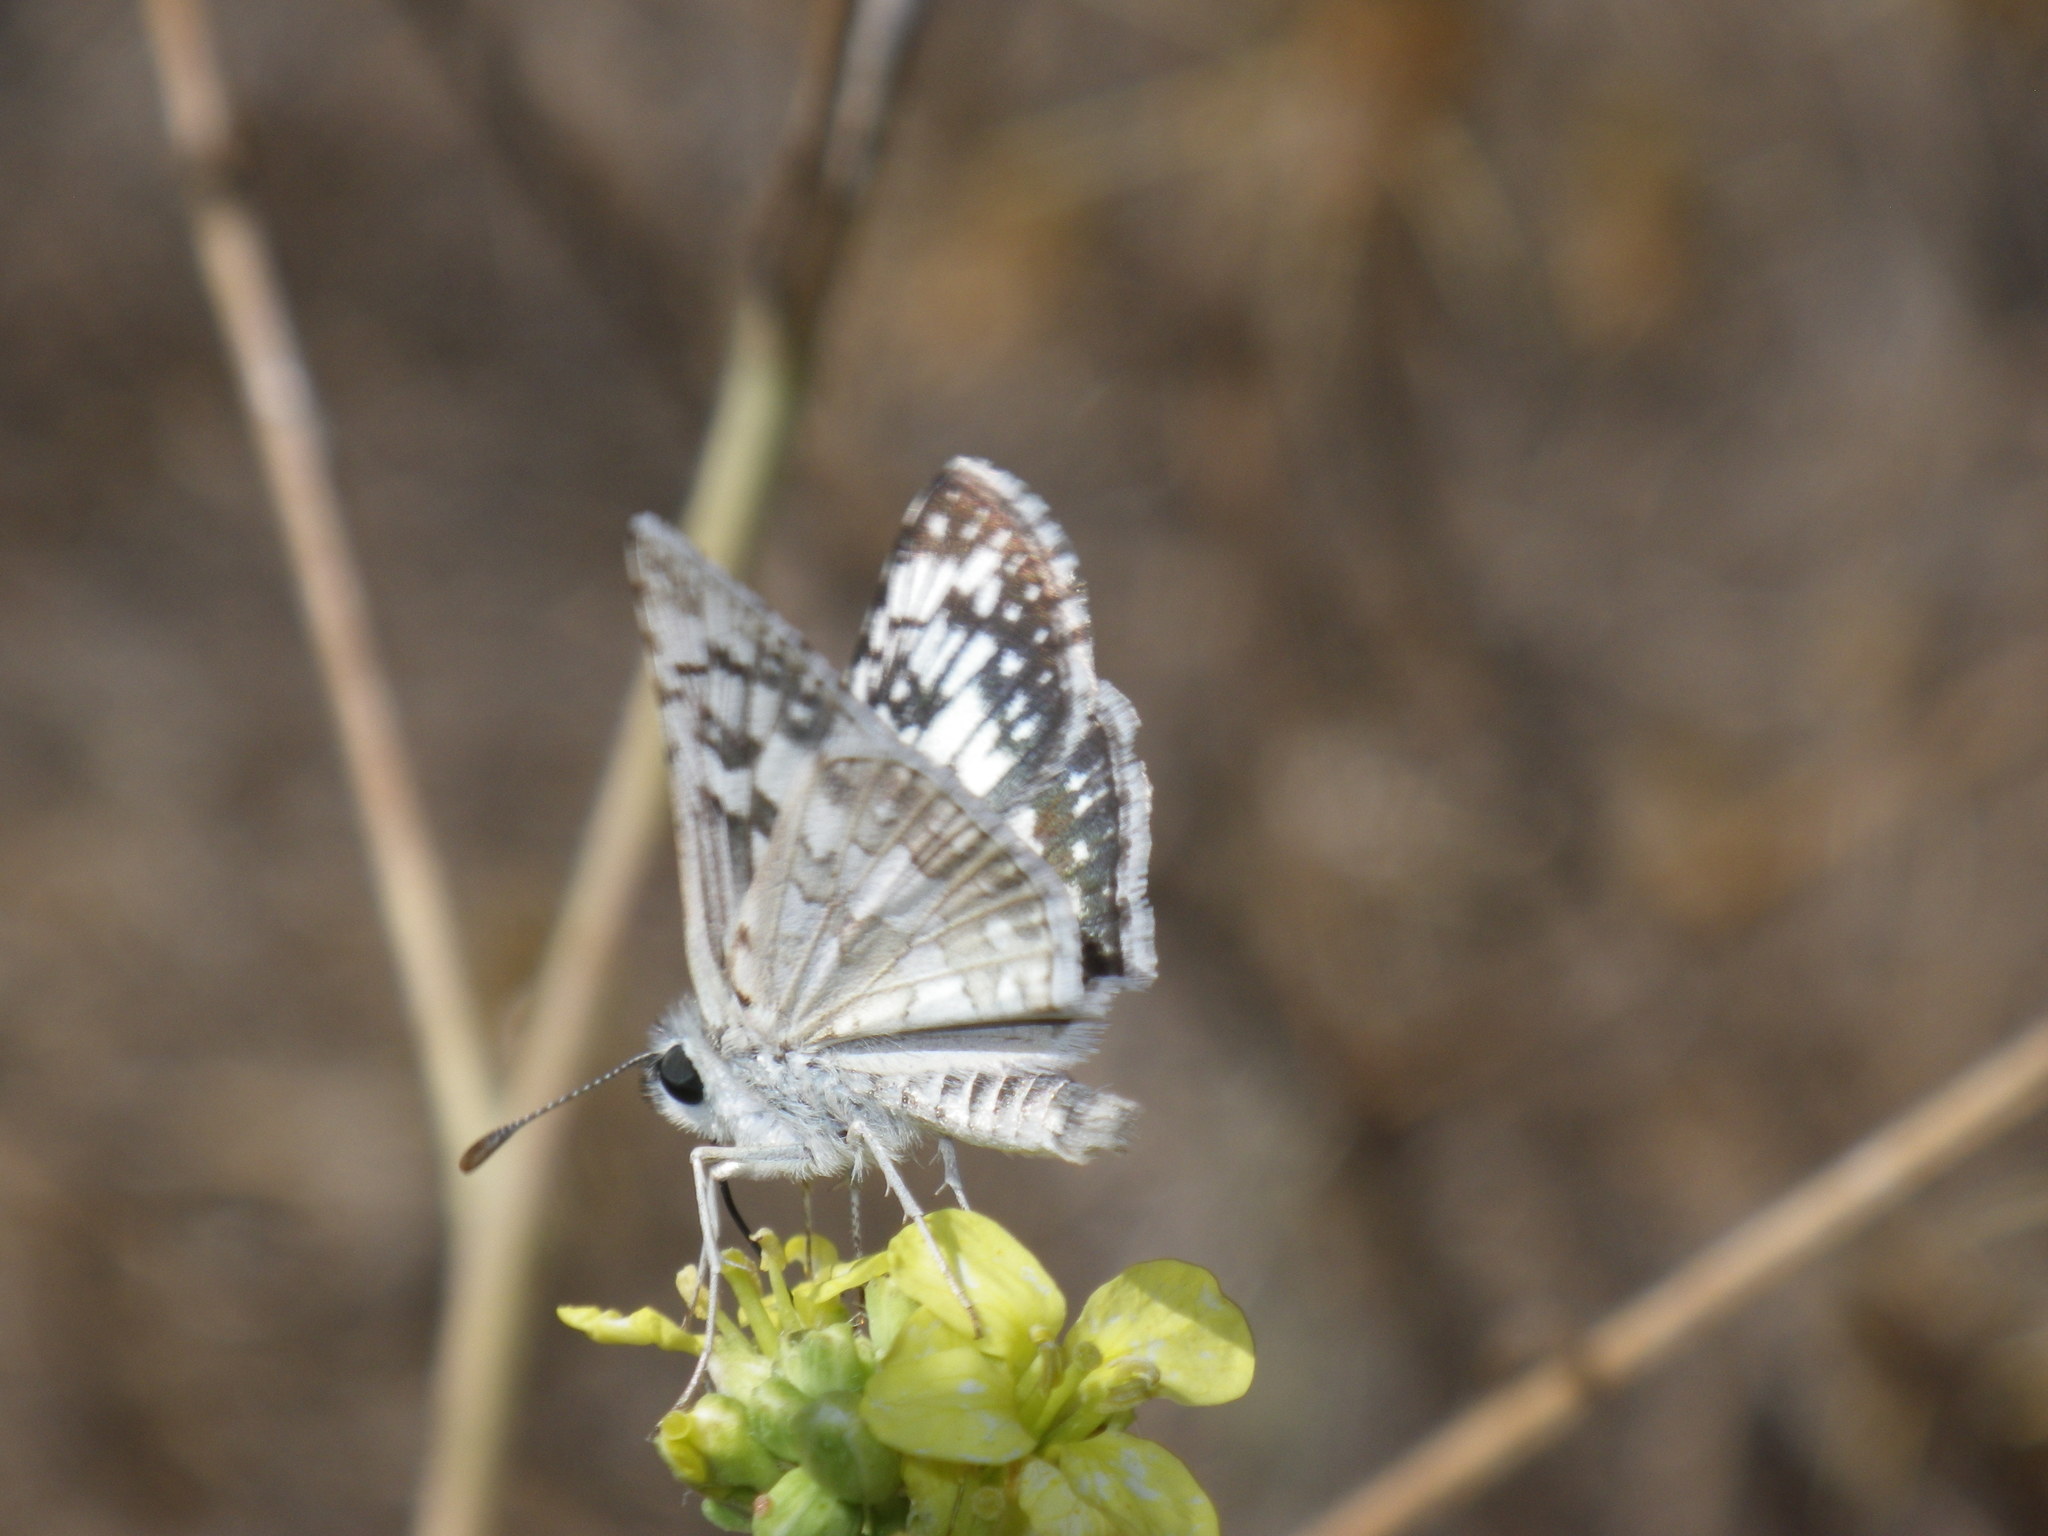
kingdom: Animalia
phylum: Arthropoda
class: Insecta
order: Lepidoptera
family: Hesperiidae
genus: Burnsius
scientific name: Burnsius communis
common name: Common checkered-skipper
